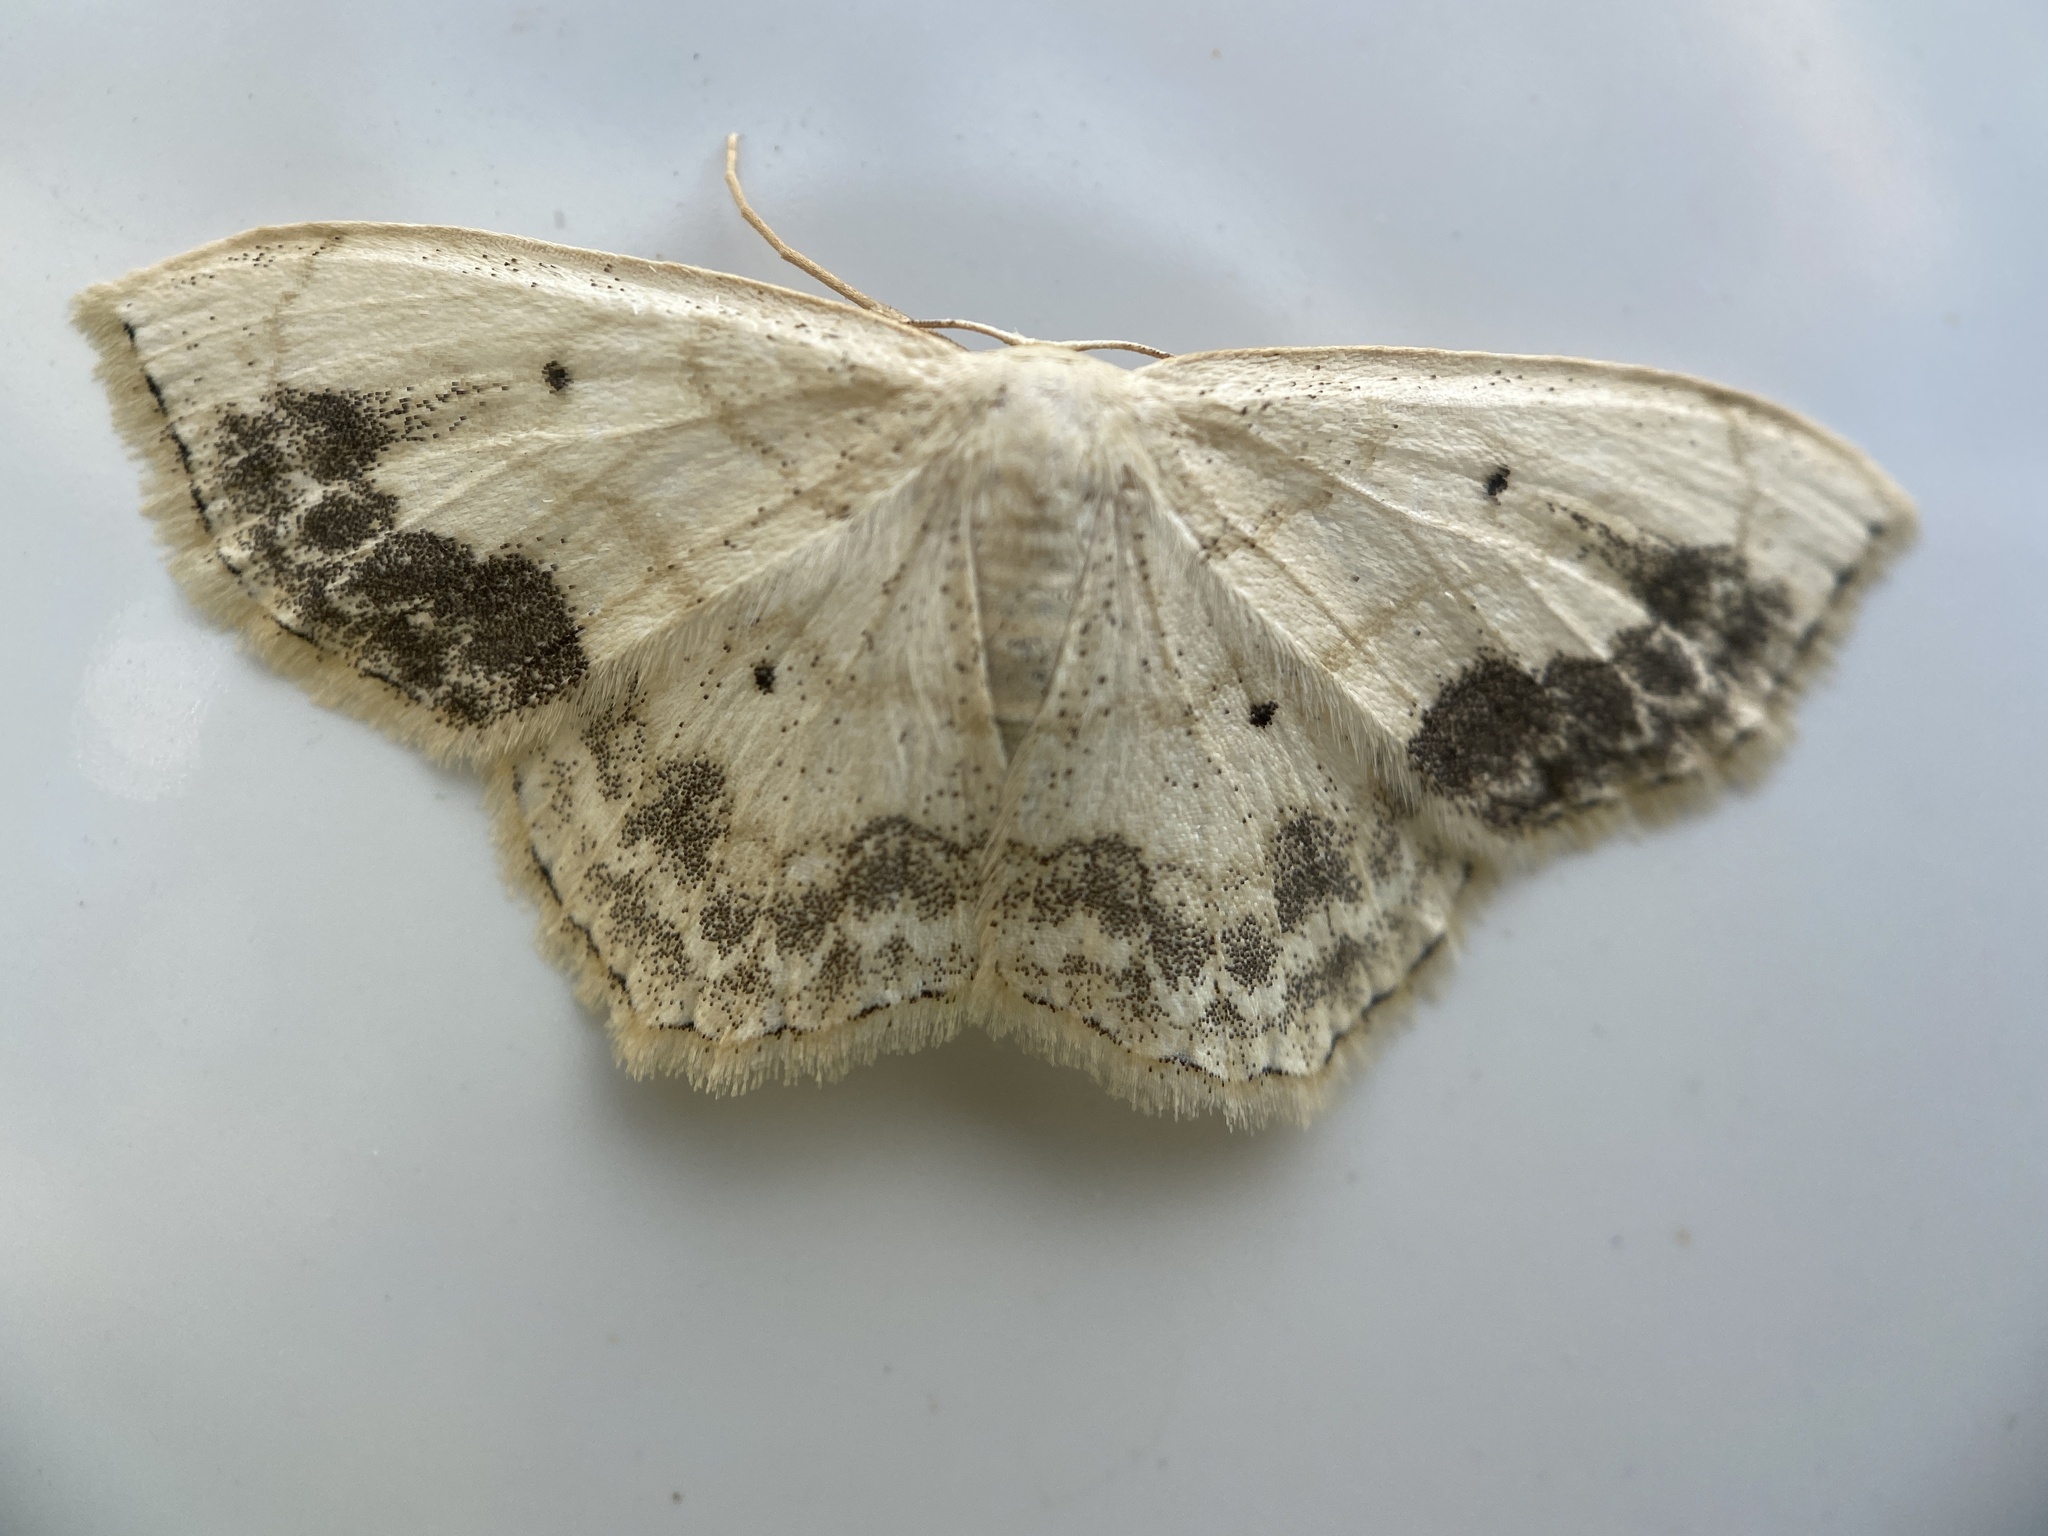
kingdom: Animalia
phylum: Arthropoda
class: Insecta
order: Lepidoptera
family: Geometridae
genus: Scopula
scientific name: Scopula limboundata
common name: Large lace border
